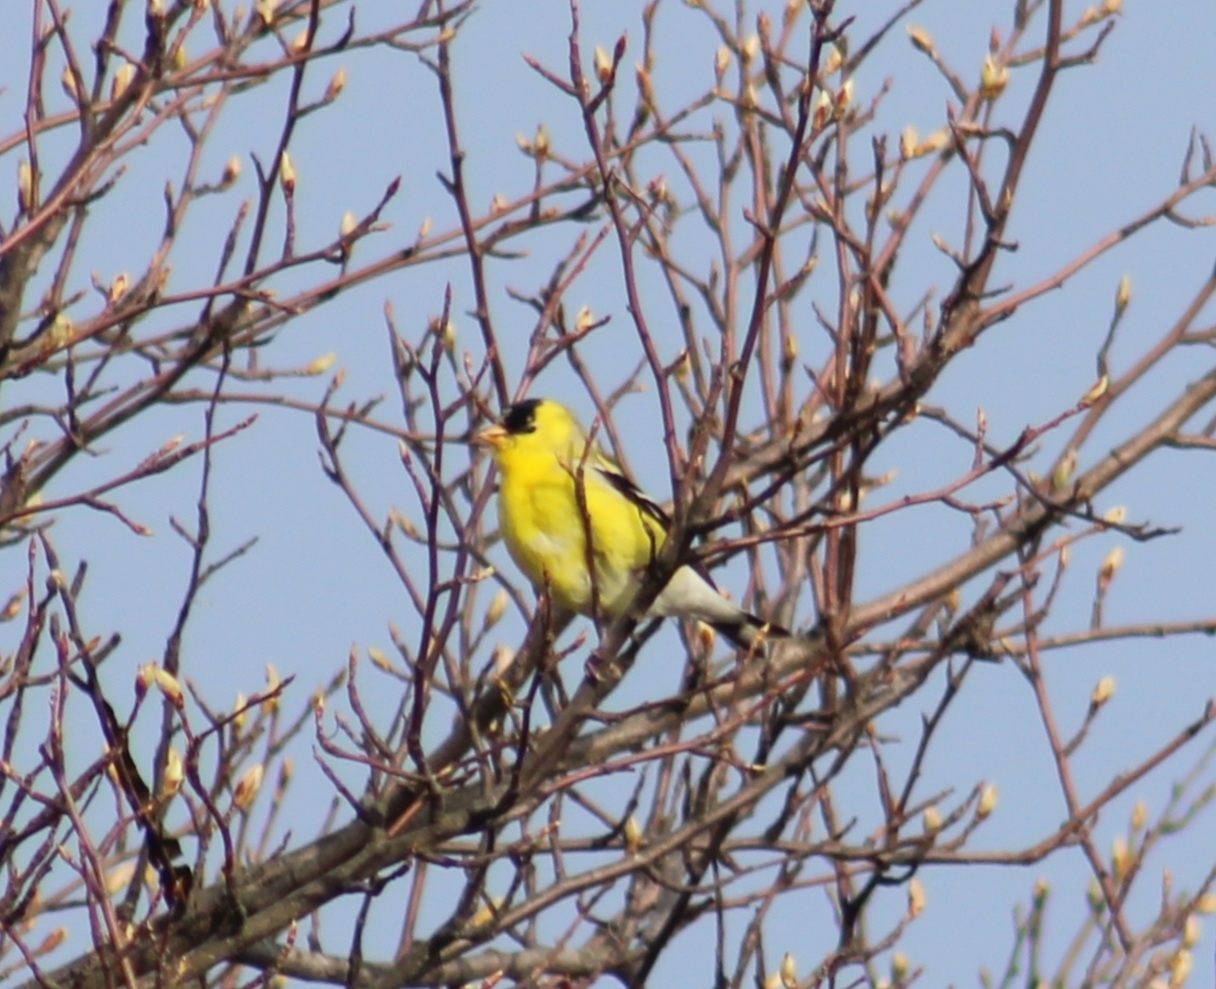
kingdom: Animalia
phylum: Chordata
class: Aves
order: Passeriformes
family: Fringillidae
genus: Spinus
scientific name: Spinus tristis
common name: American goldfinch
